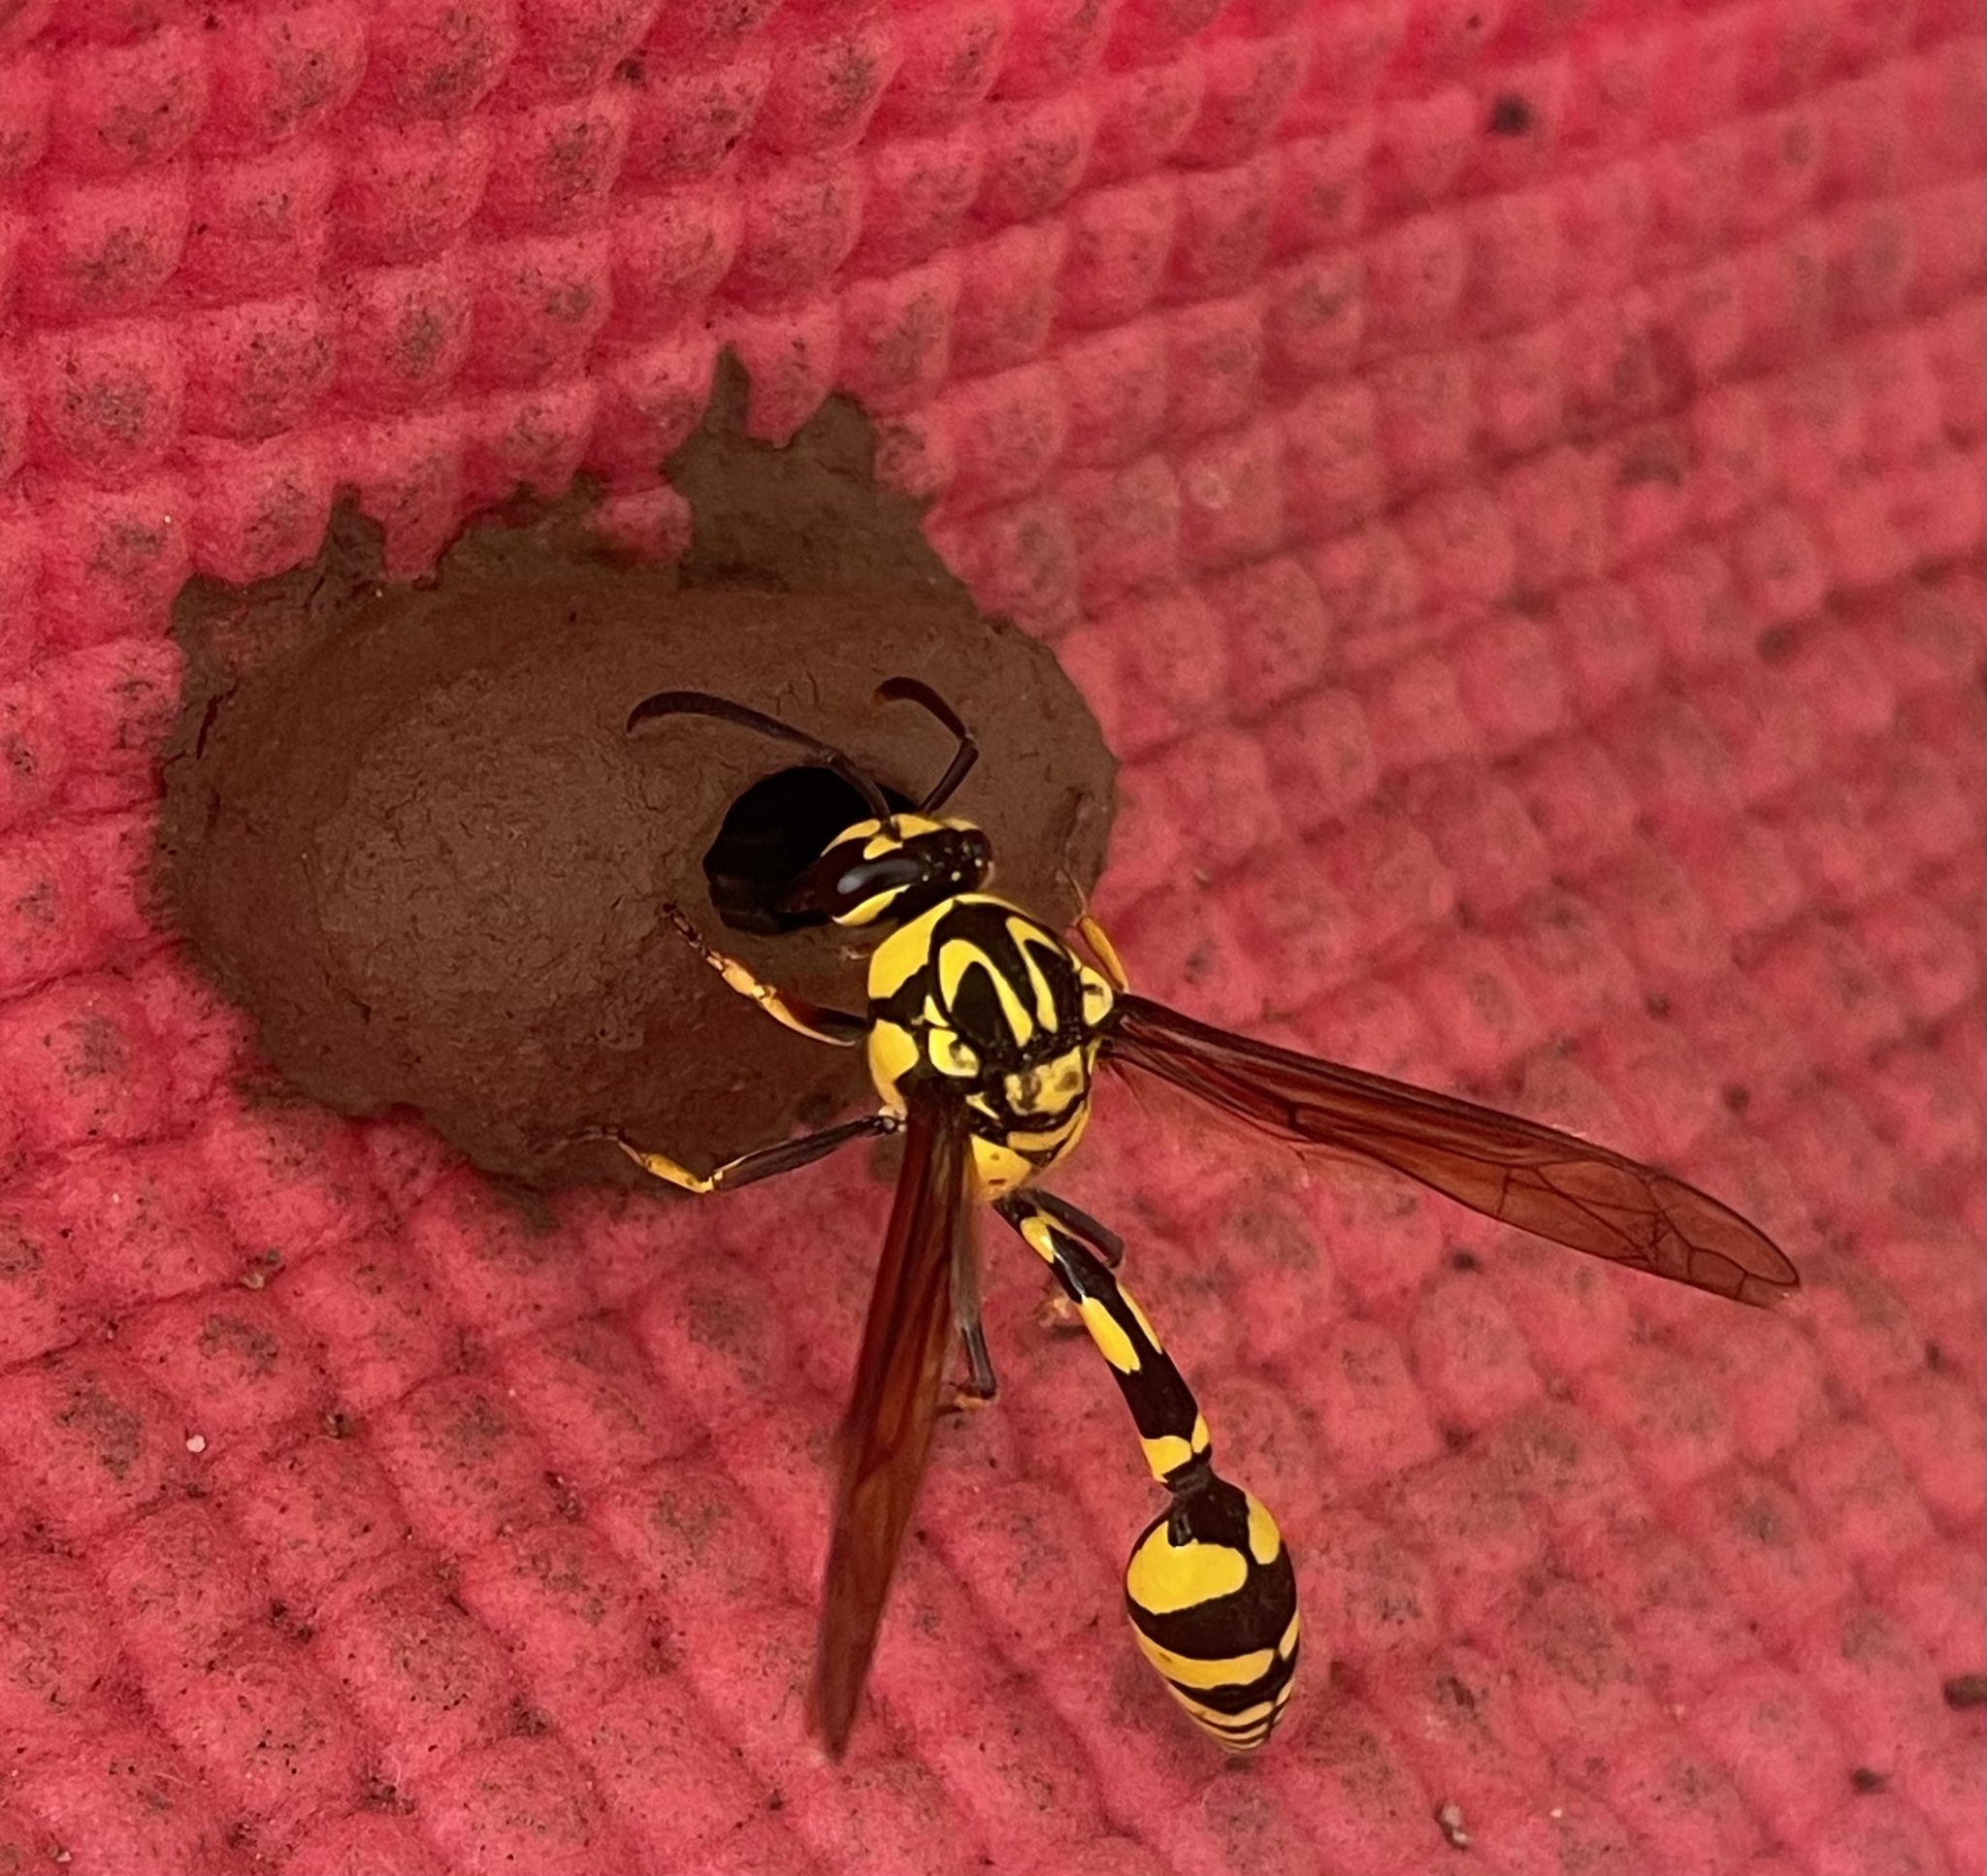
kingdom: Animalia
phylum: Arthropoda
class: Insecta
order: Hymenoptera
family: Eumenidae
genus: Phimenes
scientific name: Phimenes flavopictus
